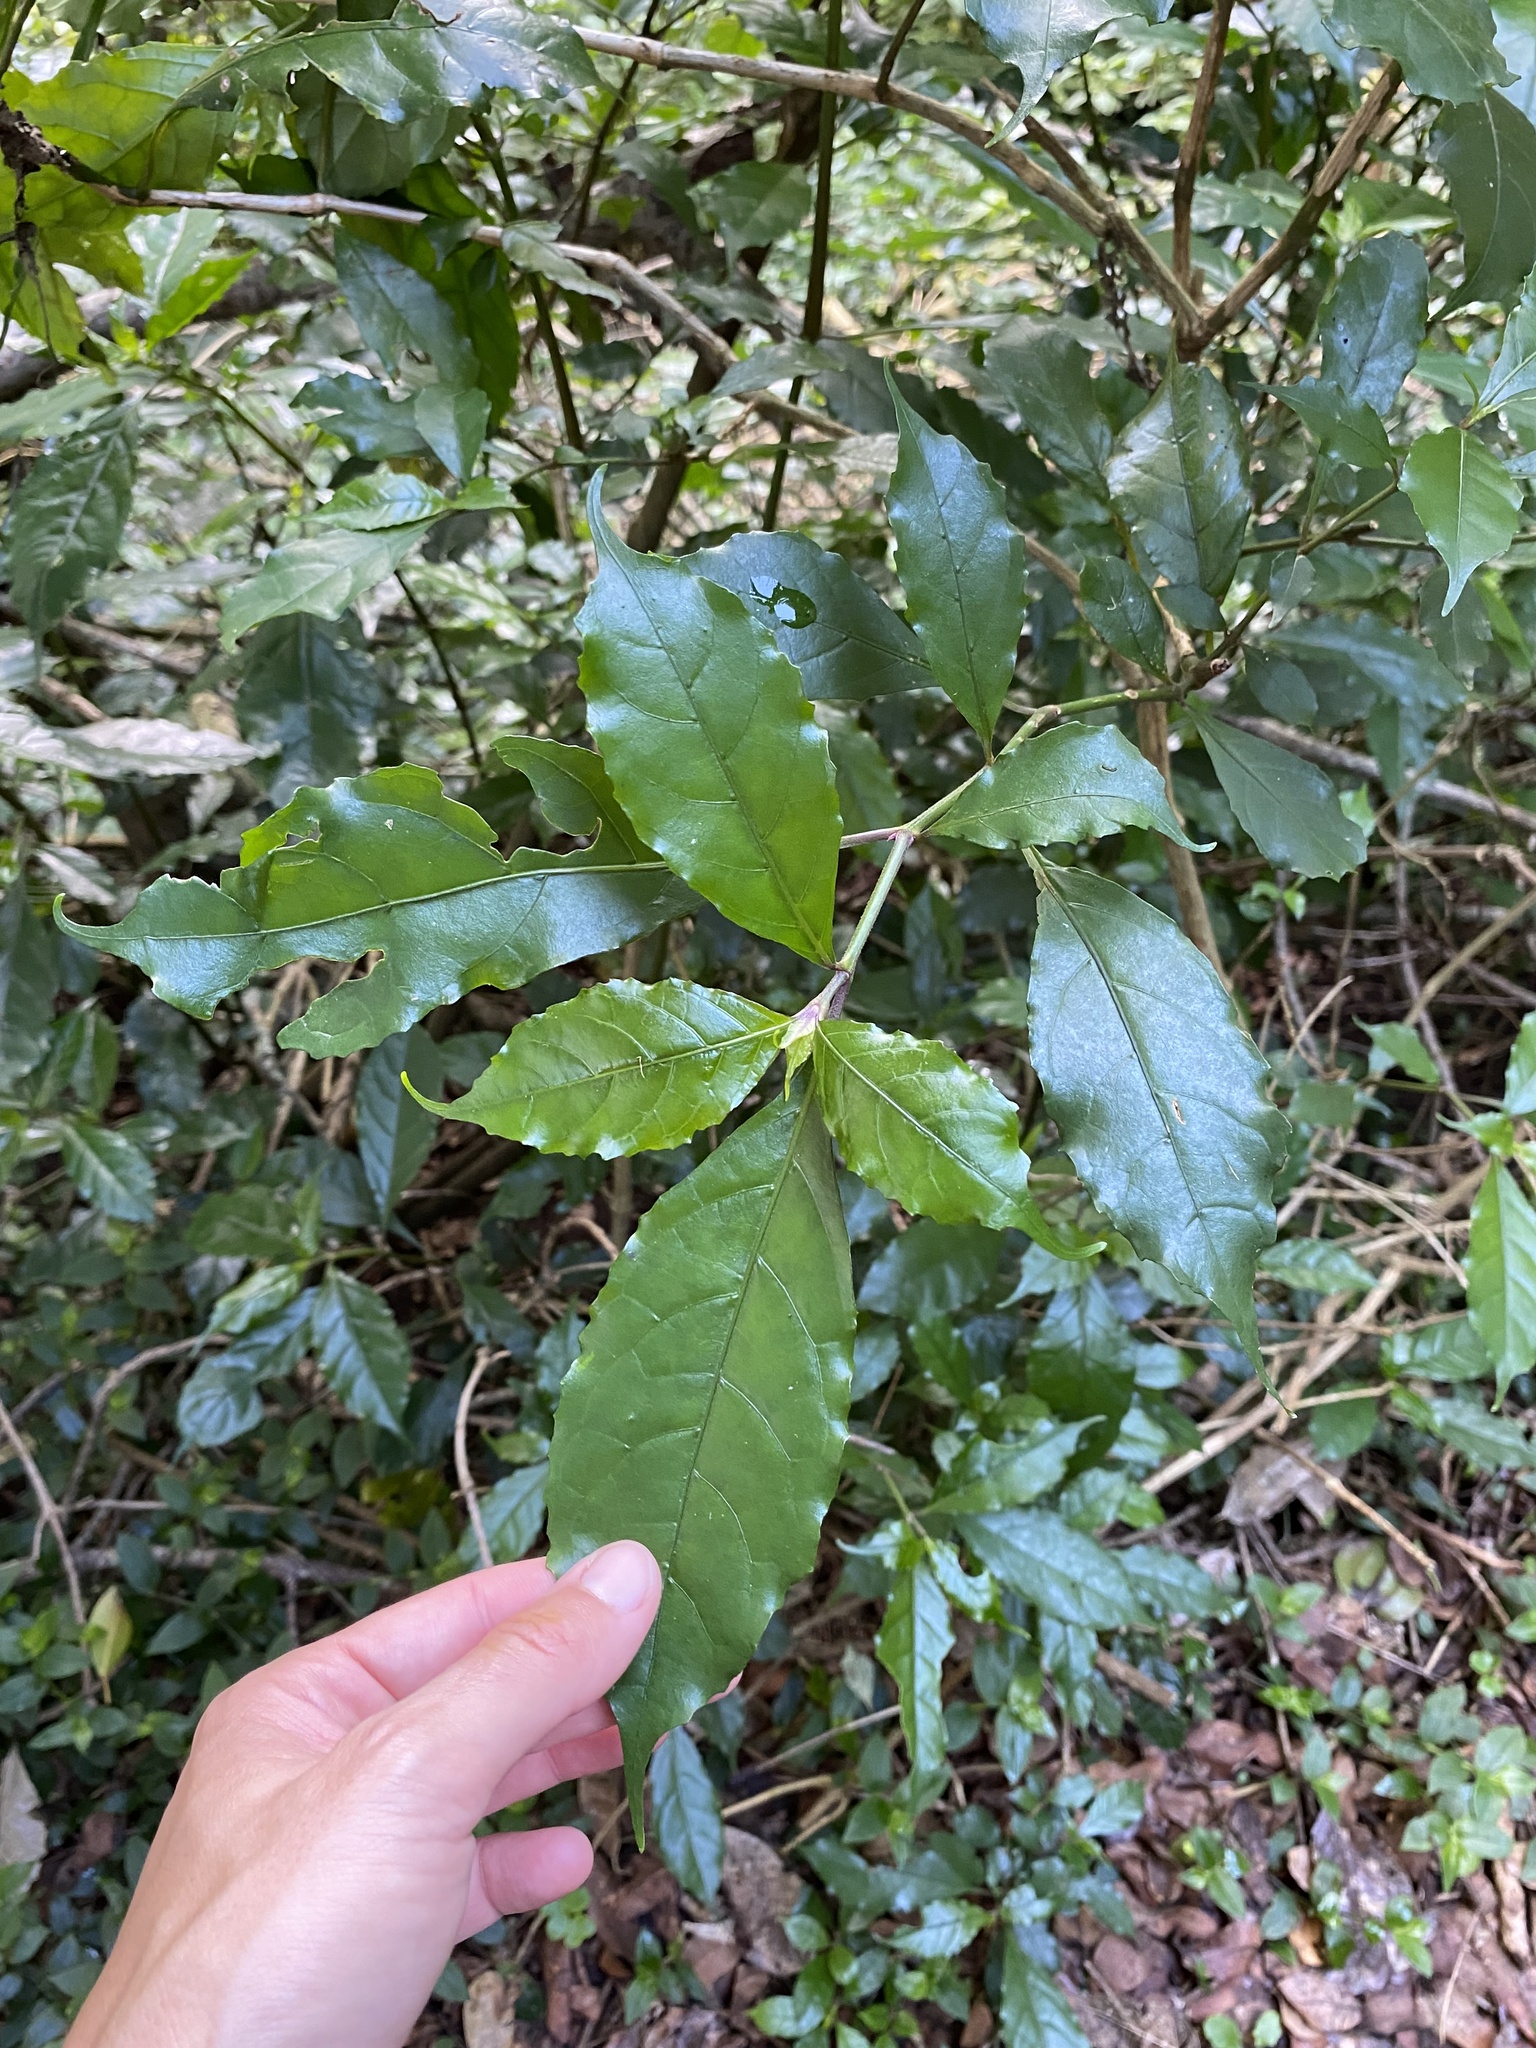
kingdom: Plantae
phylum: Tracheophyta
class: Magnoliopsida
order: Lamiales
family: Acanthaceae
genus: Mackaya
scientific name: Mackaya bella
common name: Forest bell-bush
